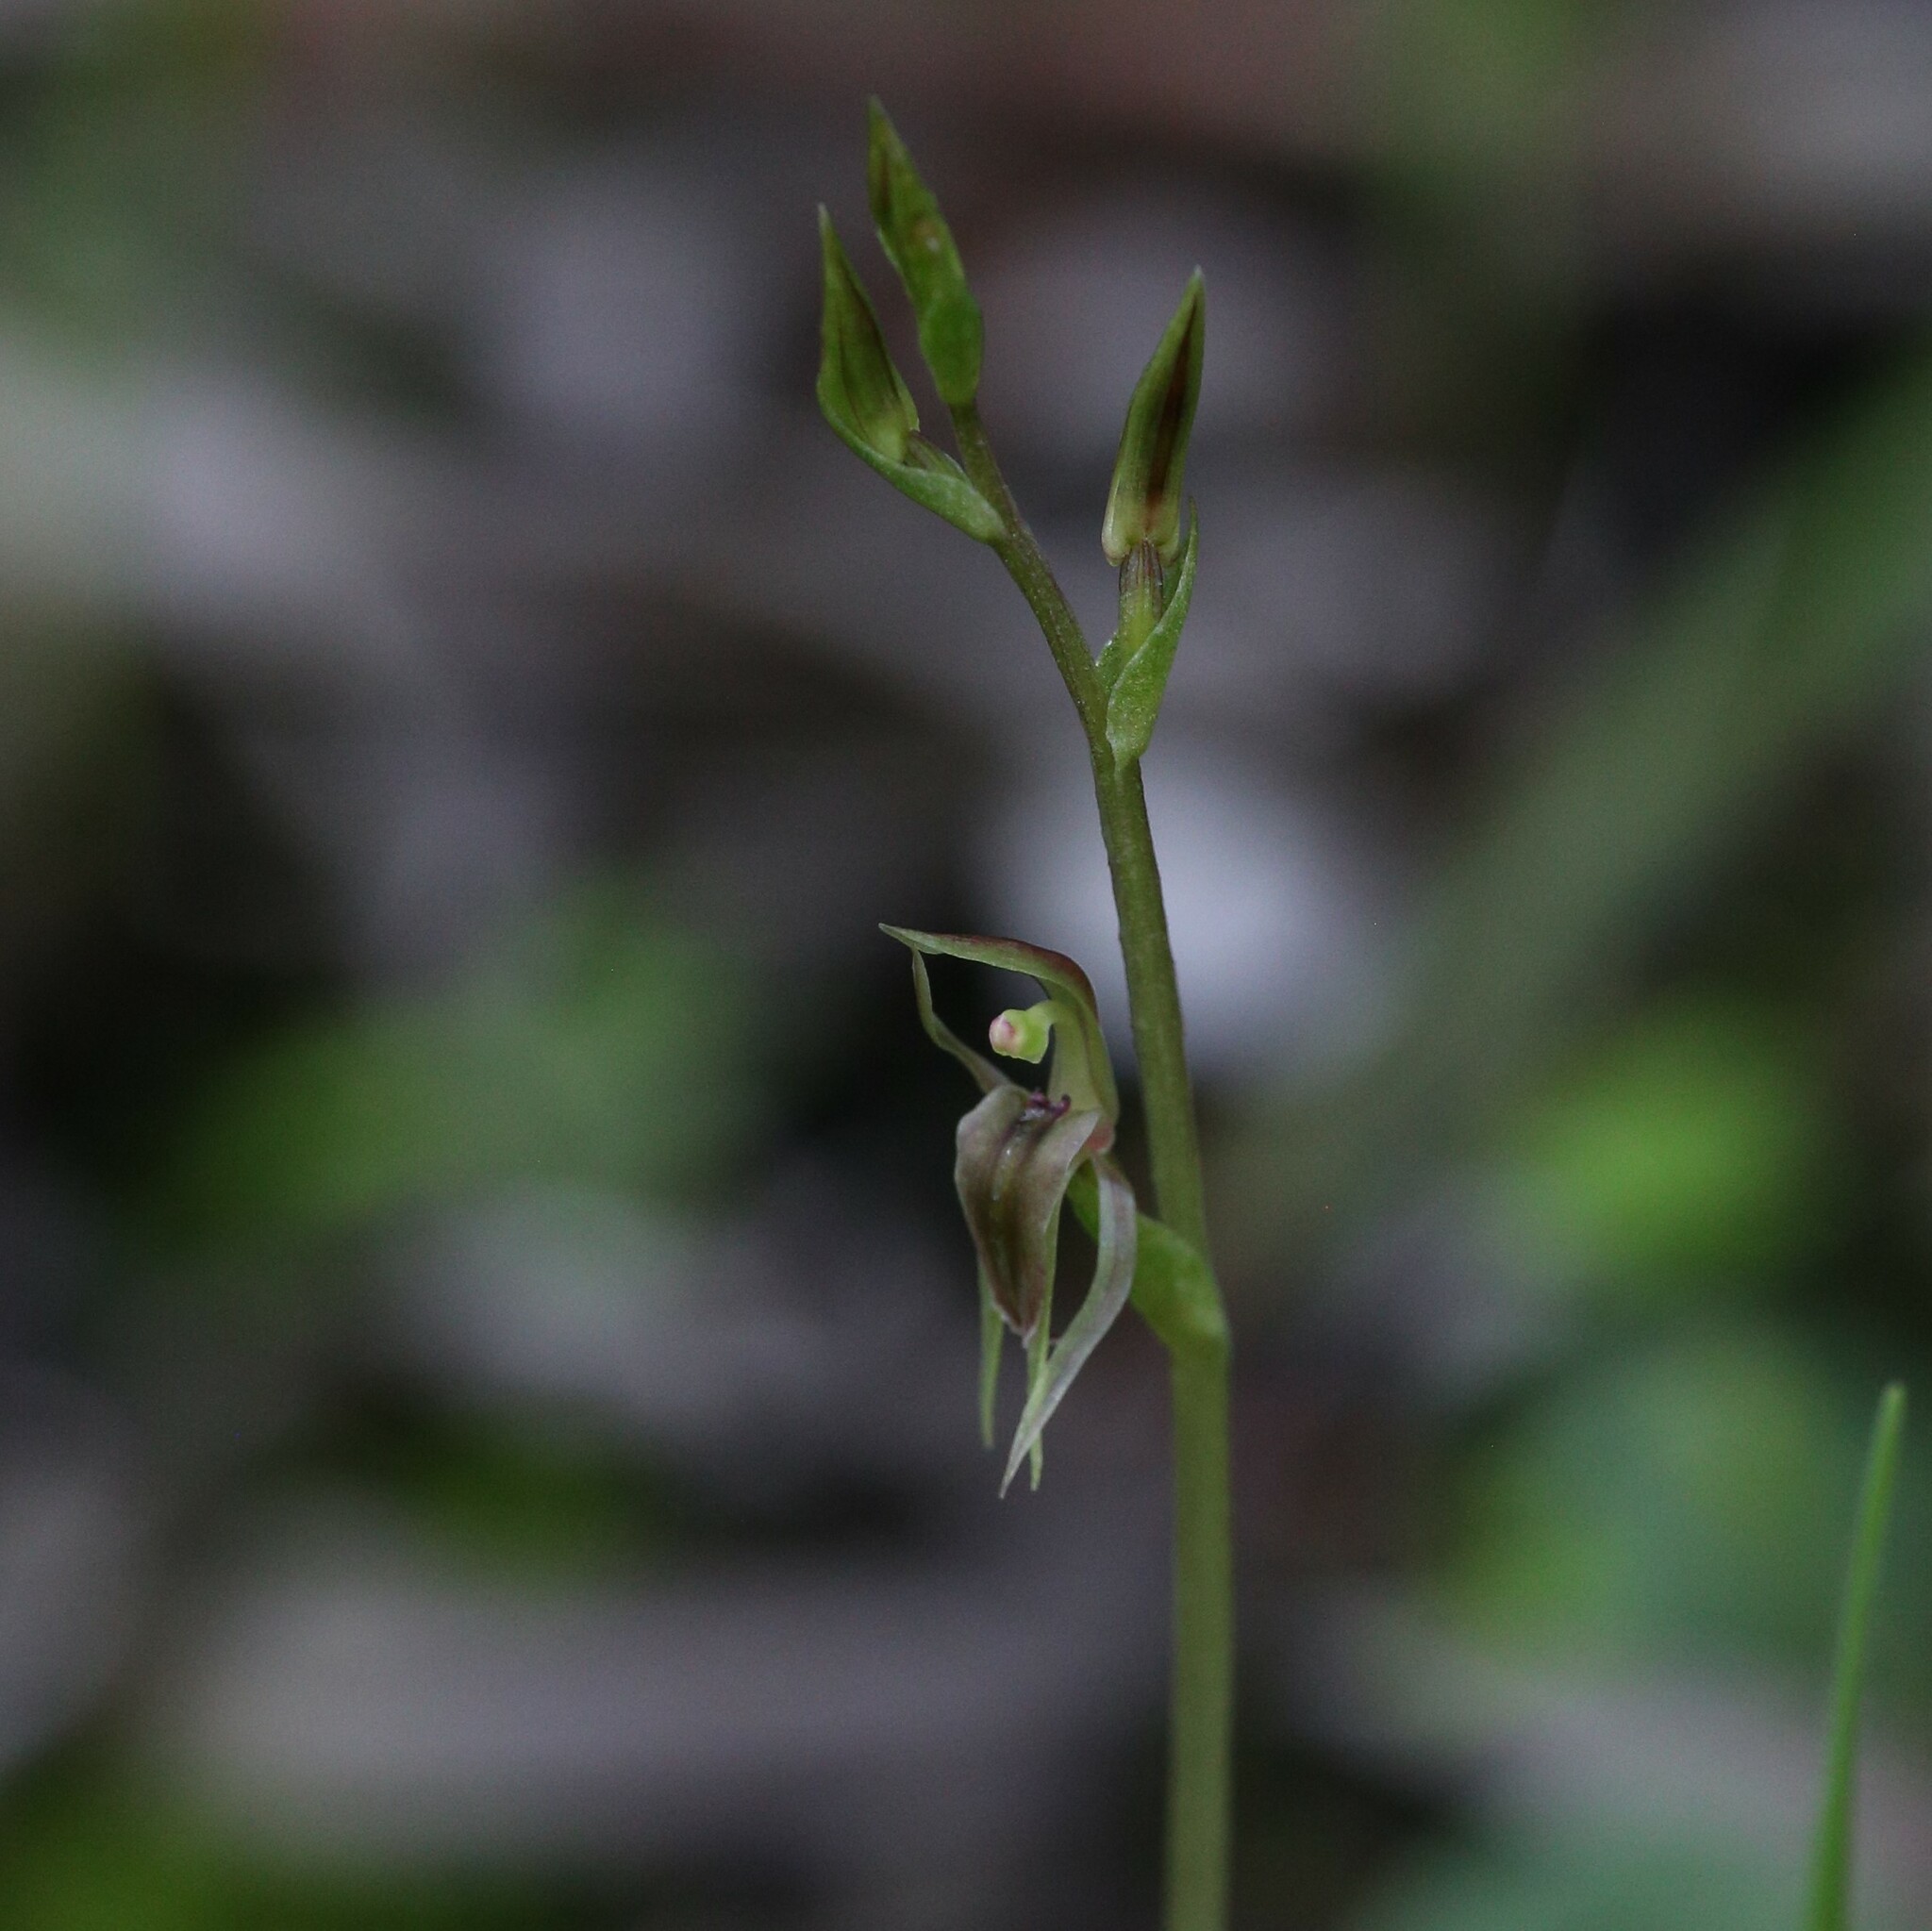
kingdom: Plantae
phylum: Tracheophyta
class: Liliopsida
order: Asparagales
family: Orchidaceae
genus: Cyrtostylis
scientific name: Cyrtostylis huegelii
